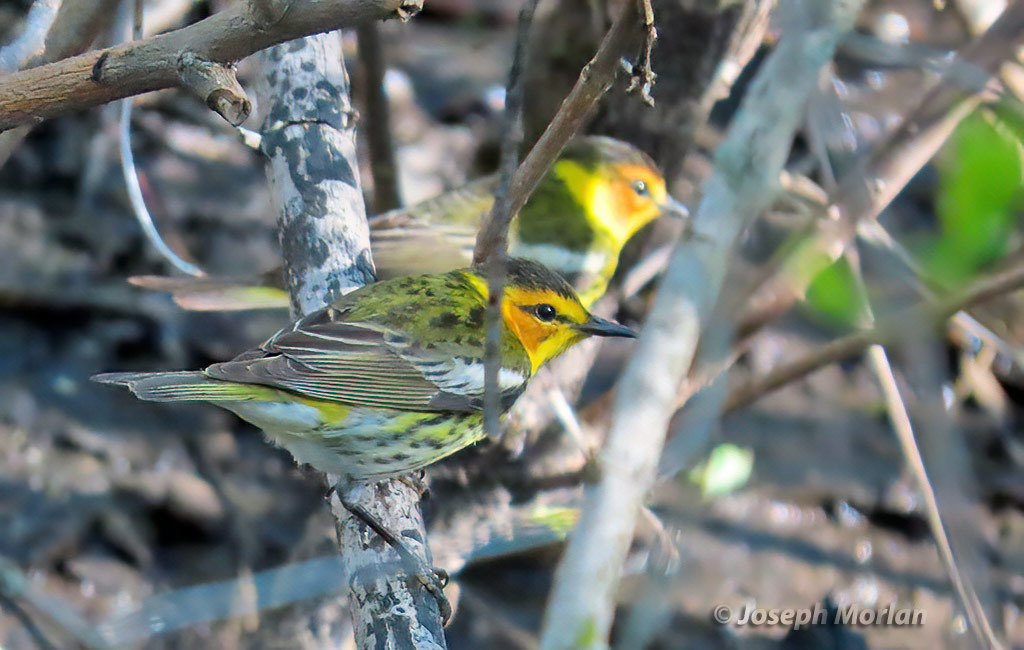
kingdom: Animalia
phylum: Chordata
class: Aves
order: Passeriformes
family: Parulidae
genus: Setophaga
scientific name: Setophaga tigrina
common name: Cape may warbler
